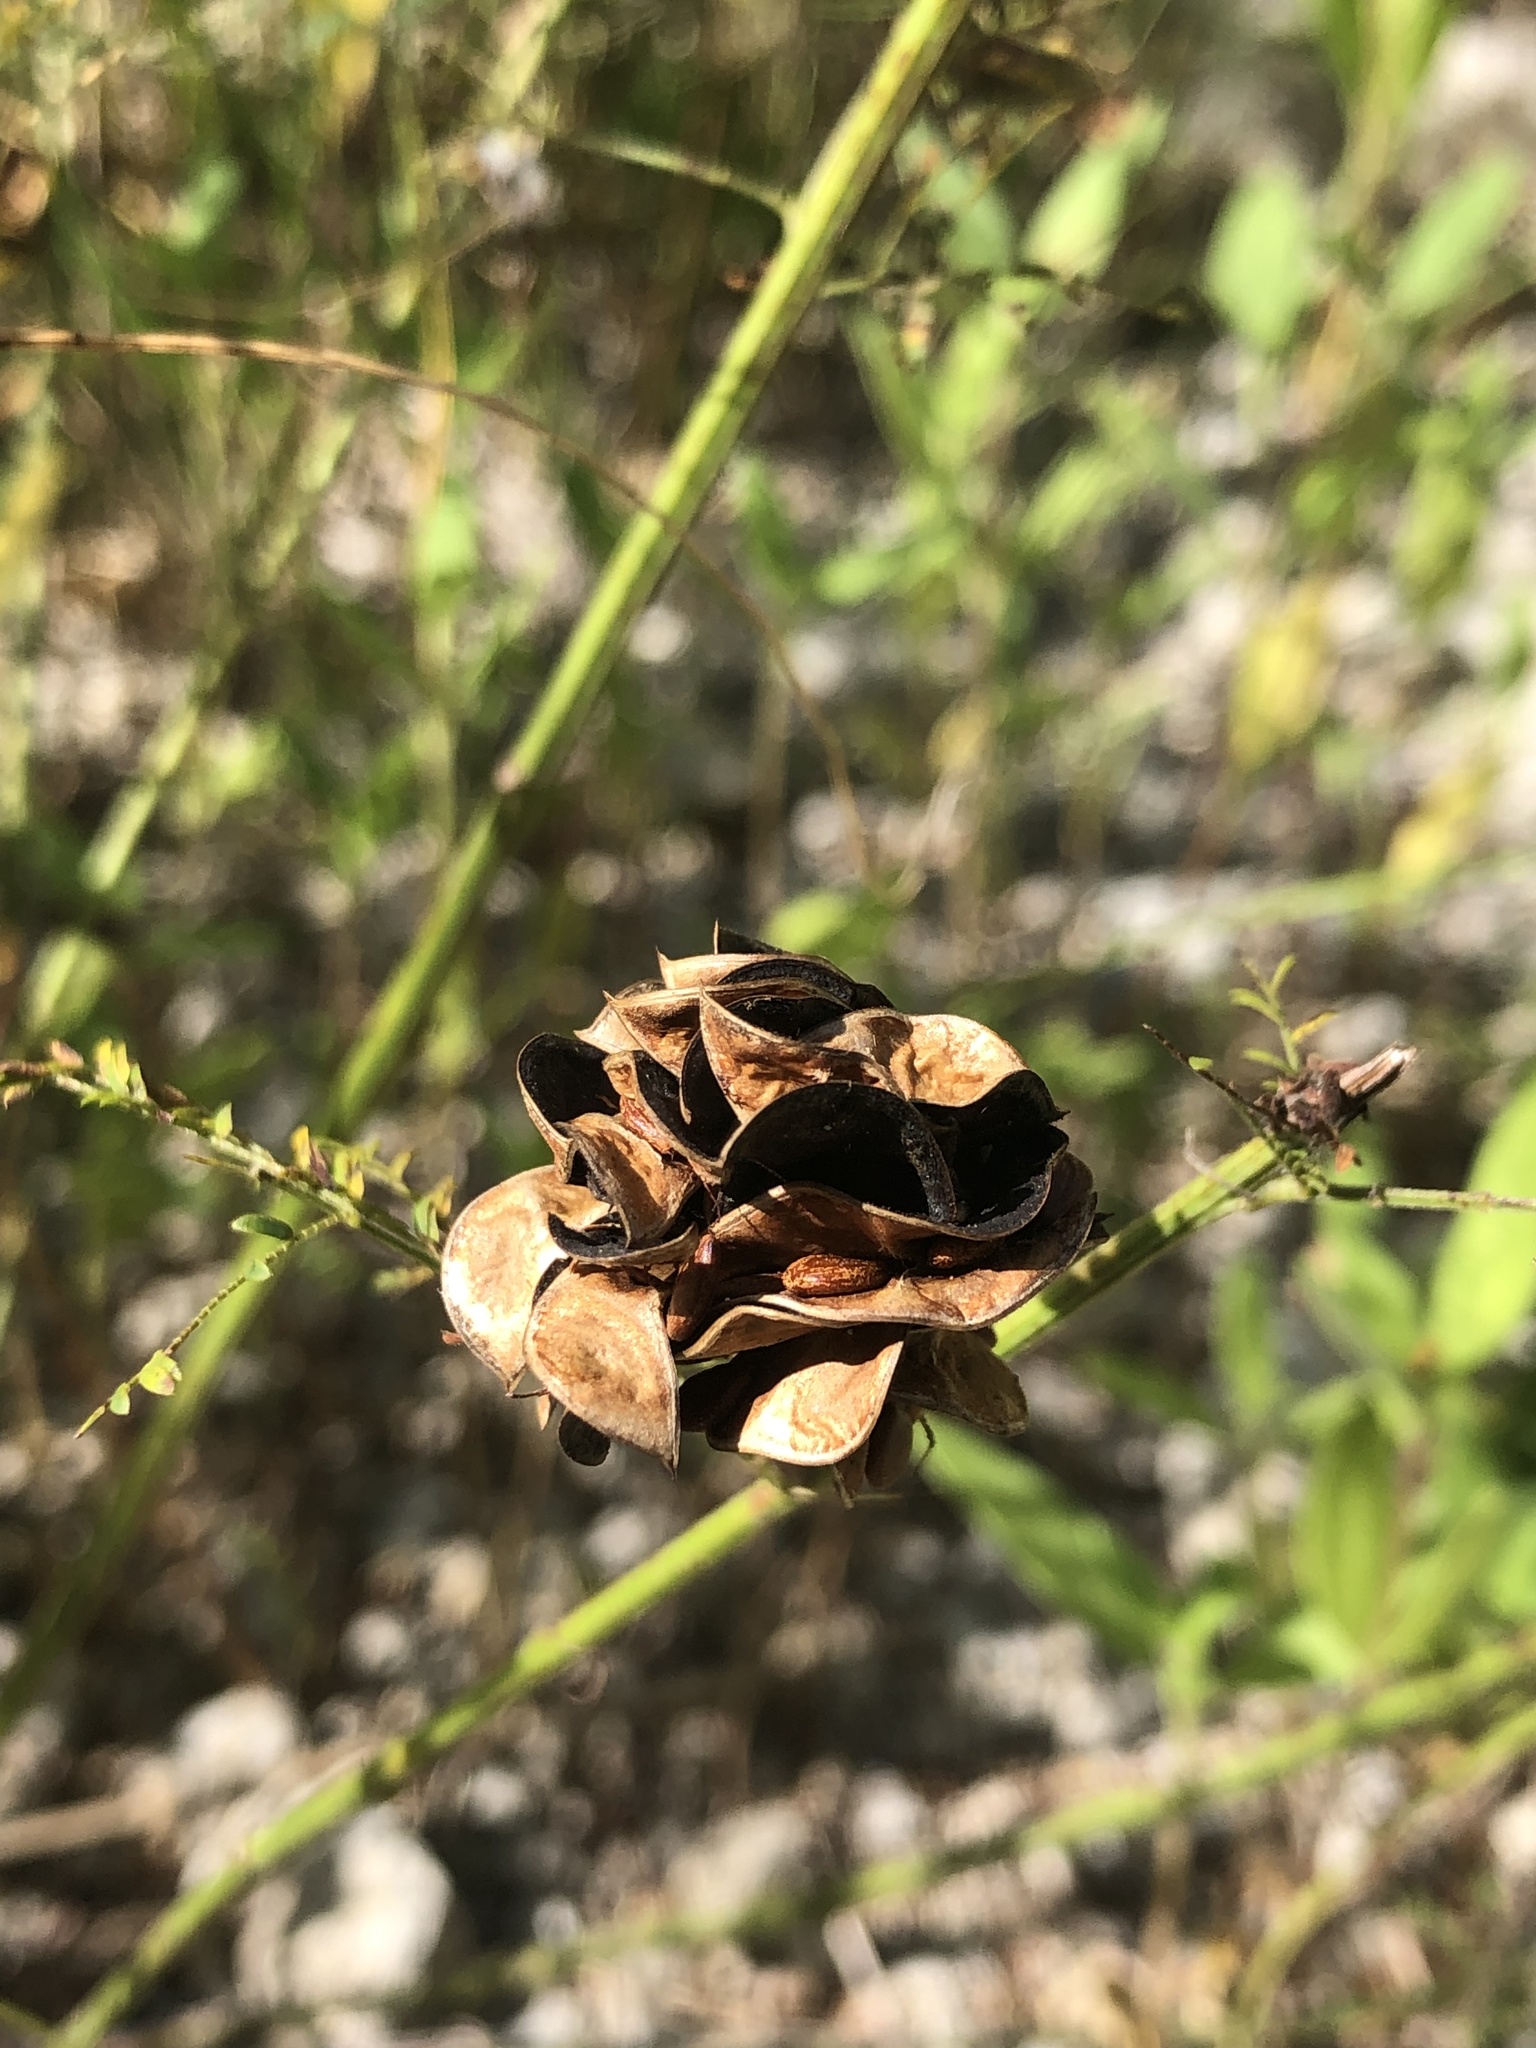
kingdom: Plantae
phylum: Tracheophyta
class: Magnoliopsida
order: Fabales
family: Fabaceae
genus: Desmanthus
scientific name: Desmanthus illinoensis
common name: Illinois bundle-flower
